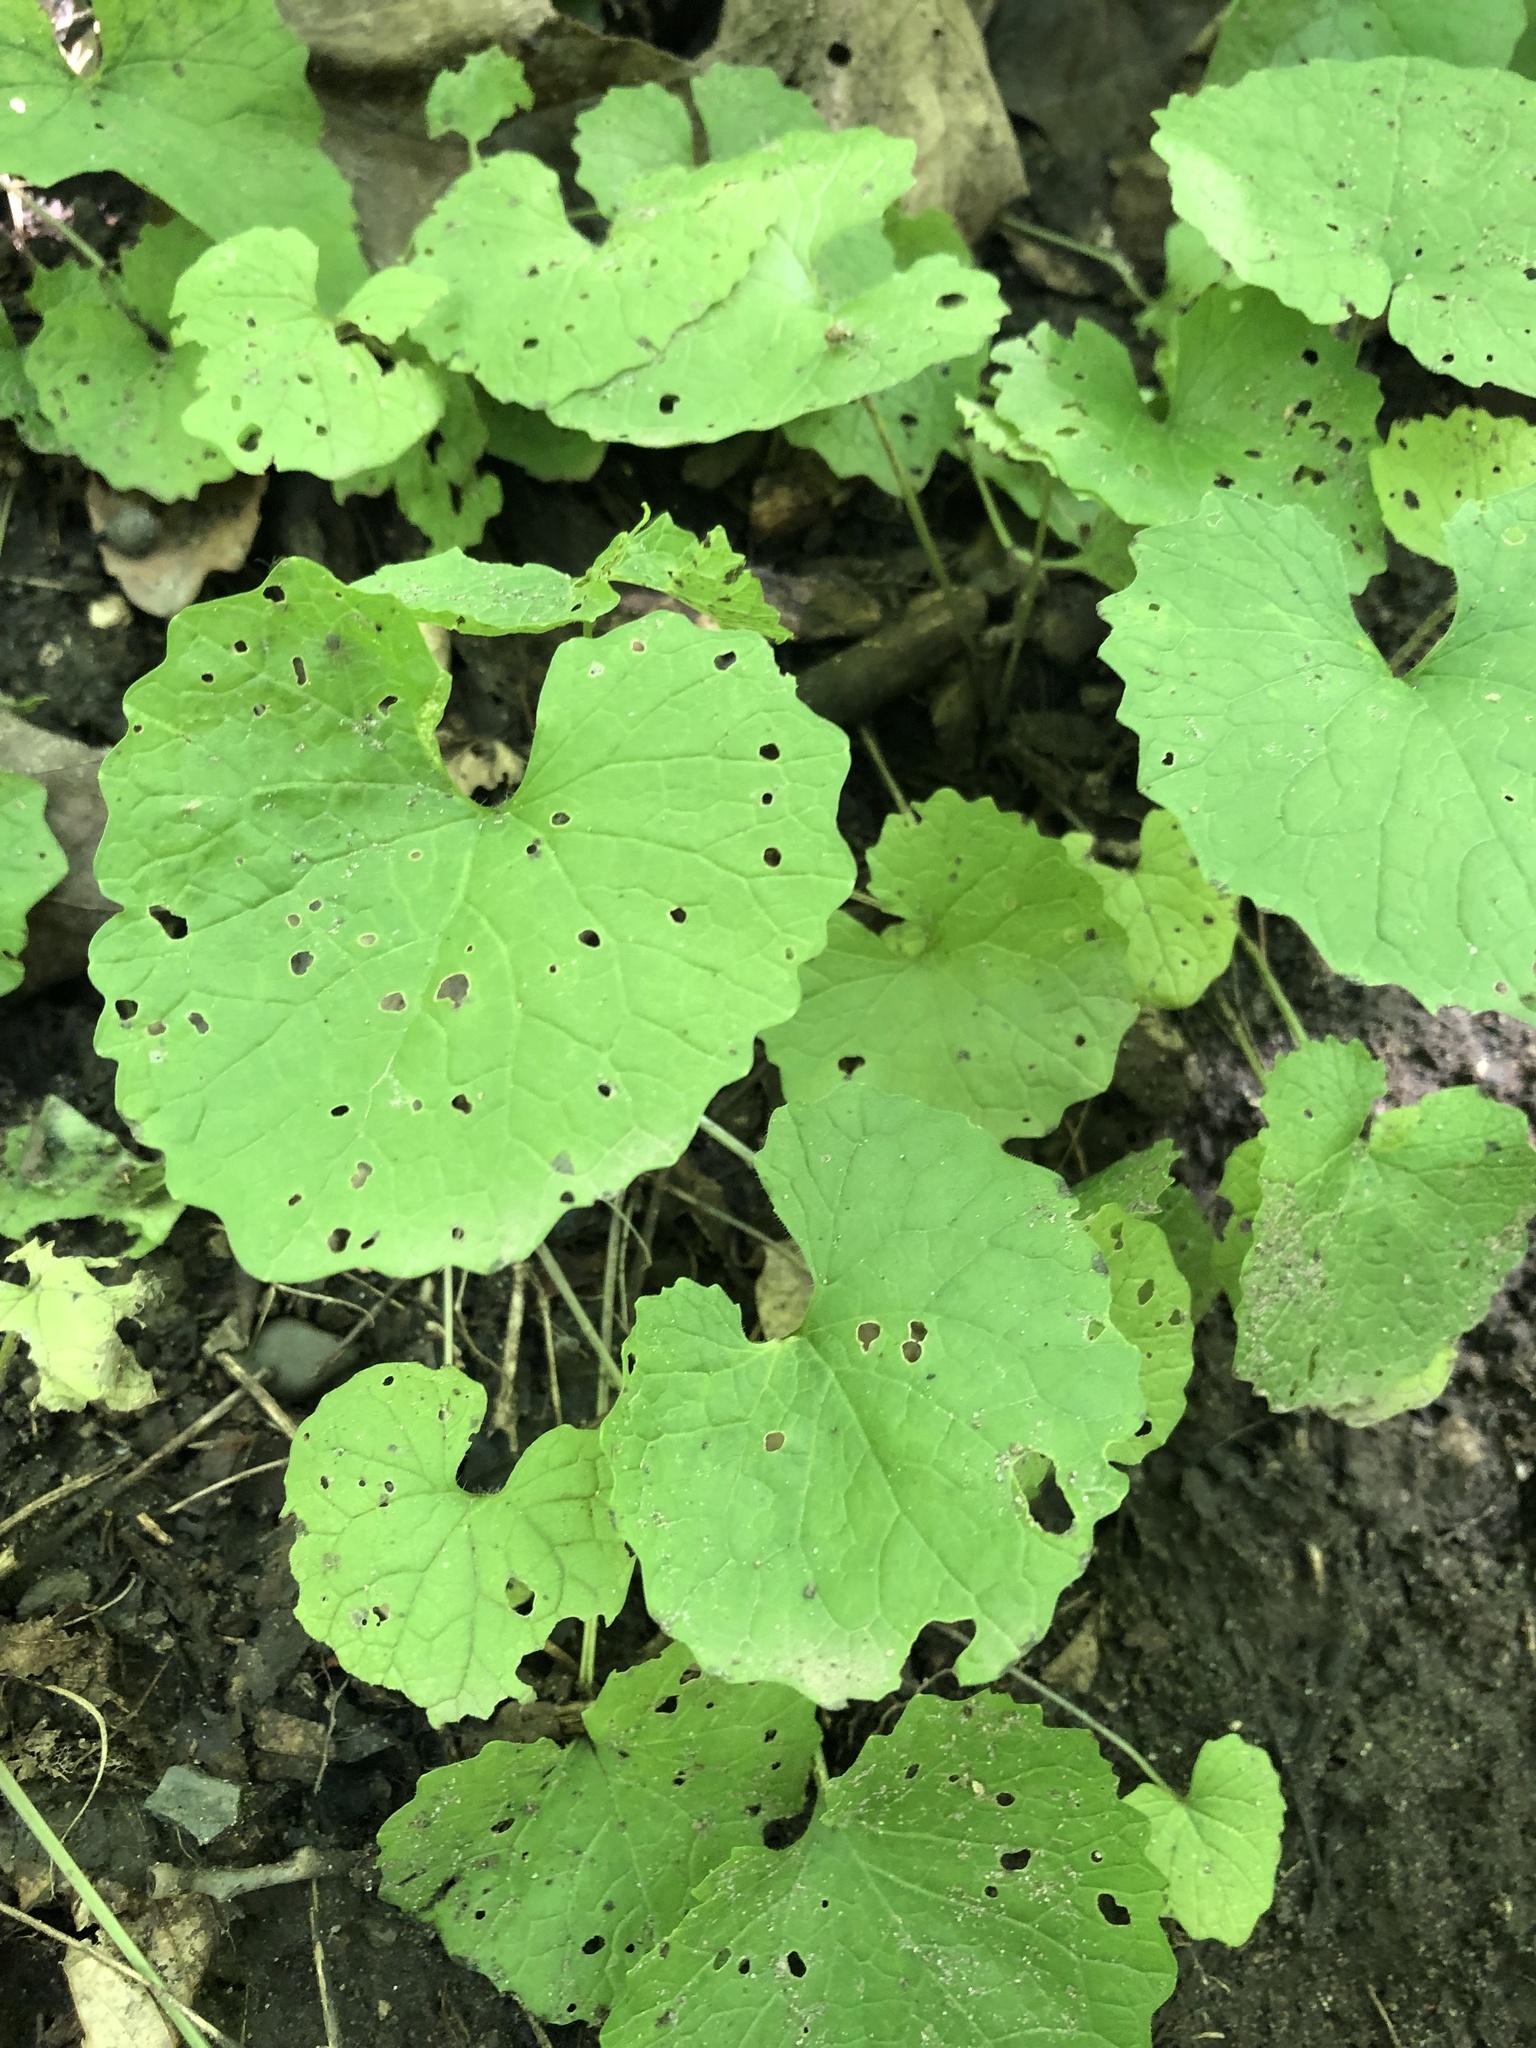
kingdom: Plantae
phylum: Tracheophyta
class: Magnoliopsida
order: Brassicales
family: Brassicaceae
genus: Alliaria
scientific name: Alliaria petiolata
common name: Garlic mustard
